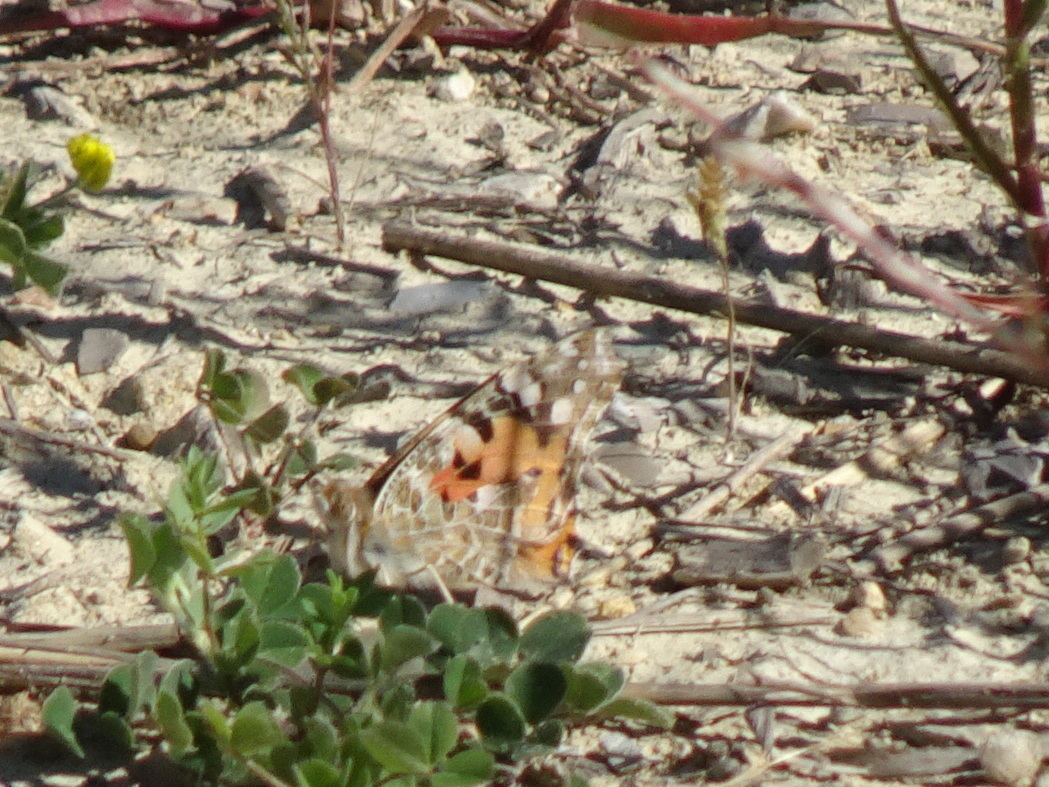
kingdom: Animalia
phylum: Arthropoda
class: Insecta
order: Lepidoptera
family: Nymphalidae
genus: Vanessa
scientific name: Vanessa cardui
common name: Painted lady
